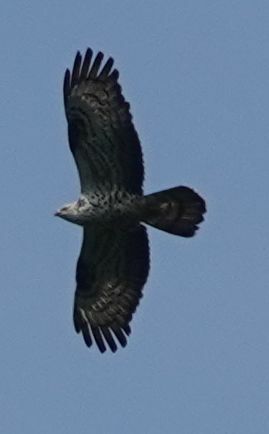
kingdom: Animalia
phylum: Chordata
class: Aves
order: Accipitriformes
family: Accipitridae
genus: Pernis
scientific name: Pernis apivorus
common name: European honey buzzard
